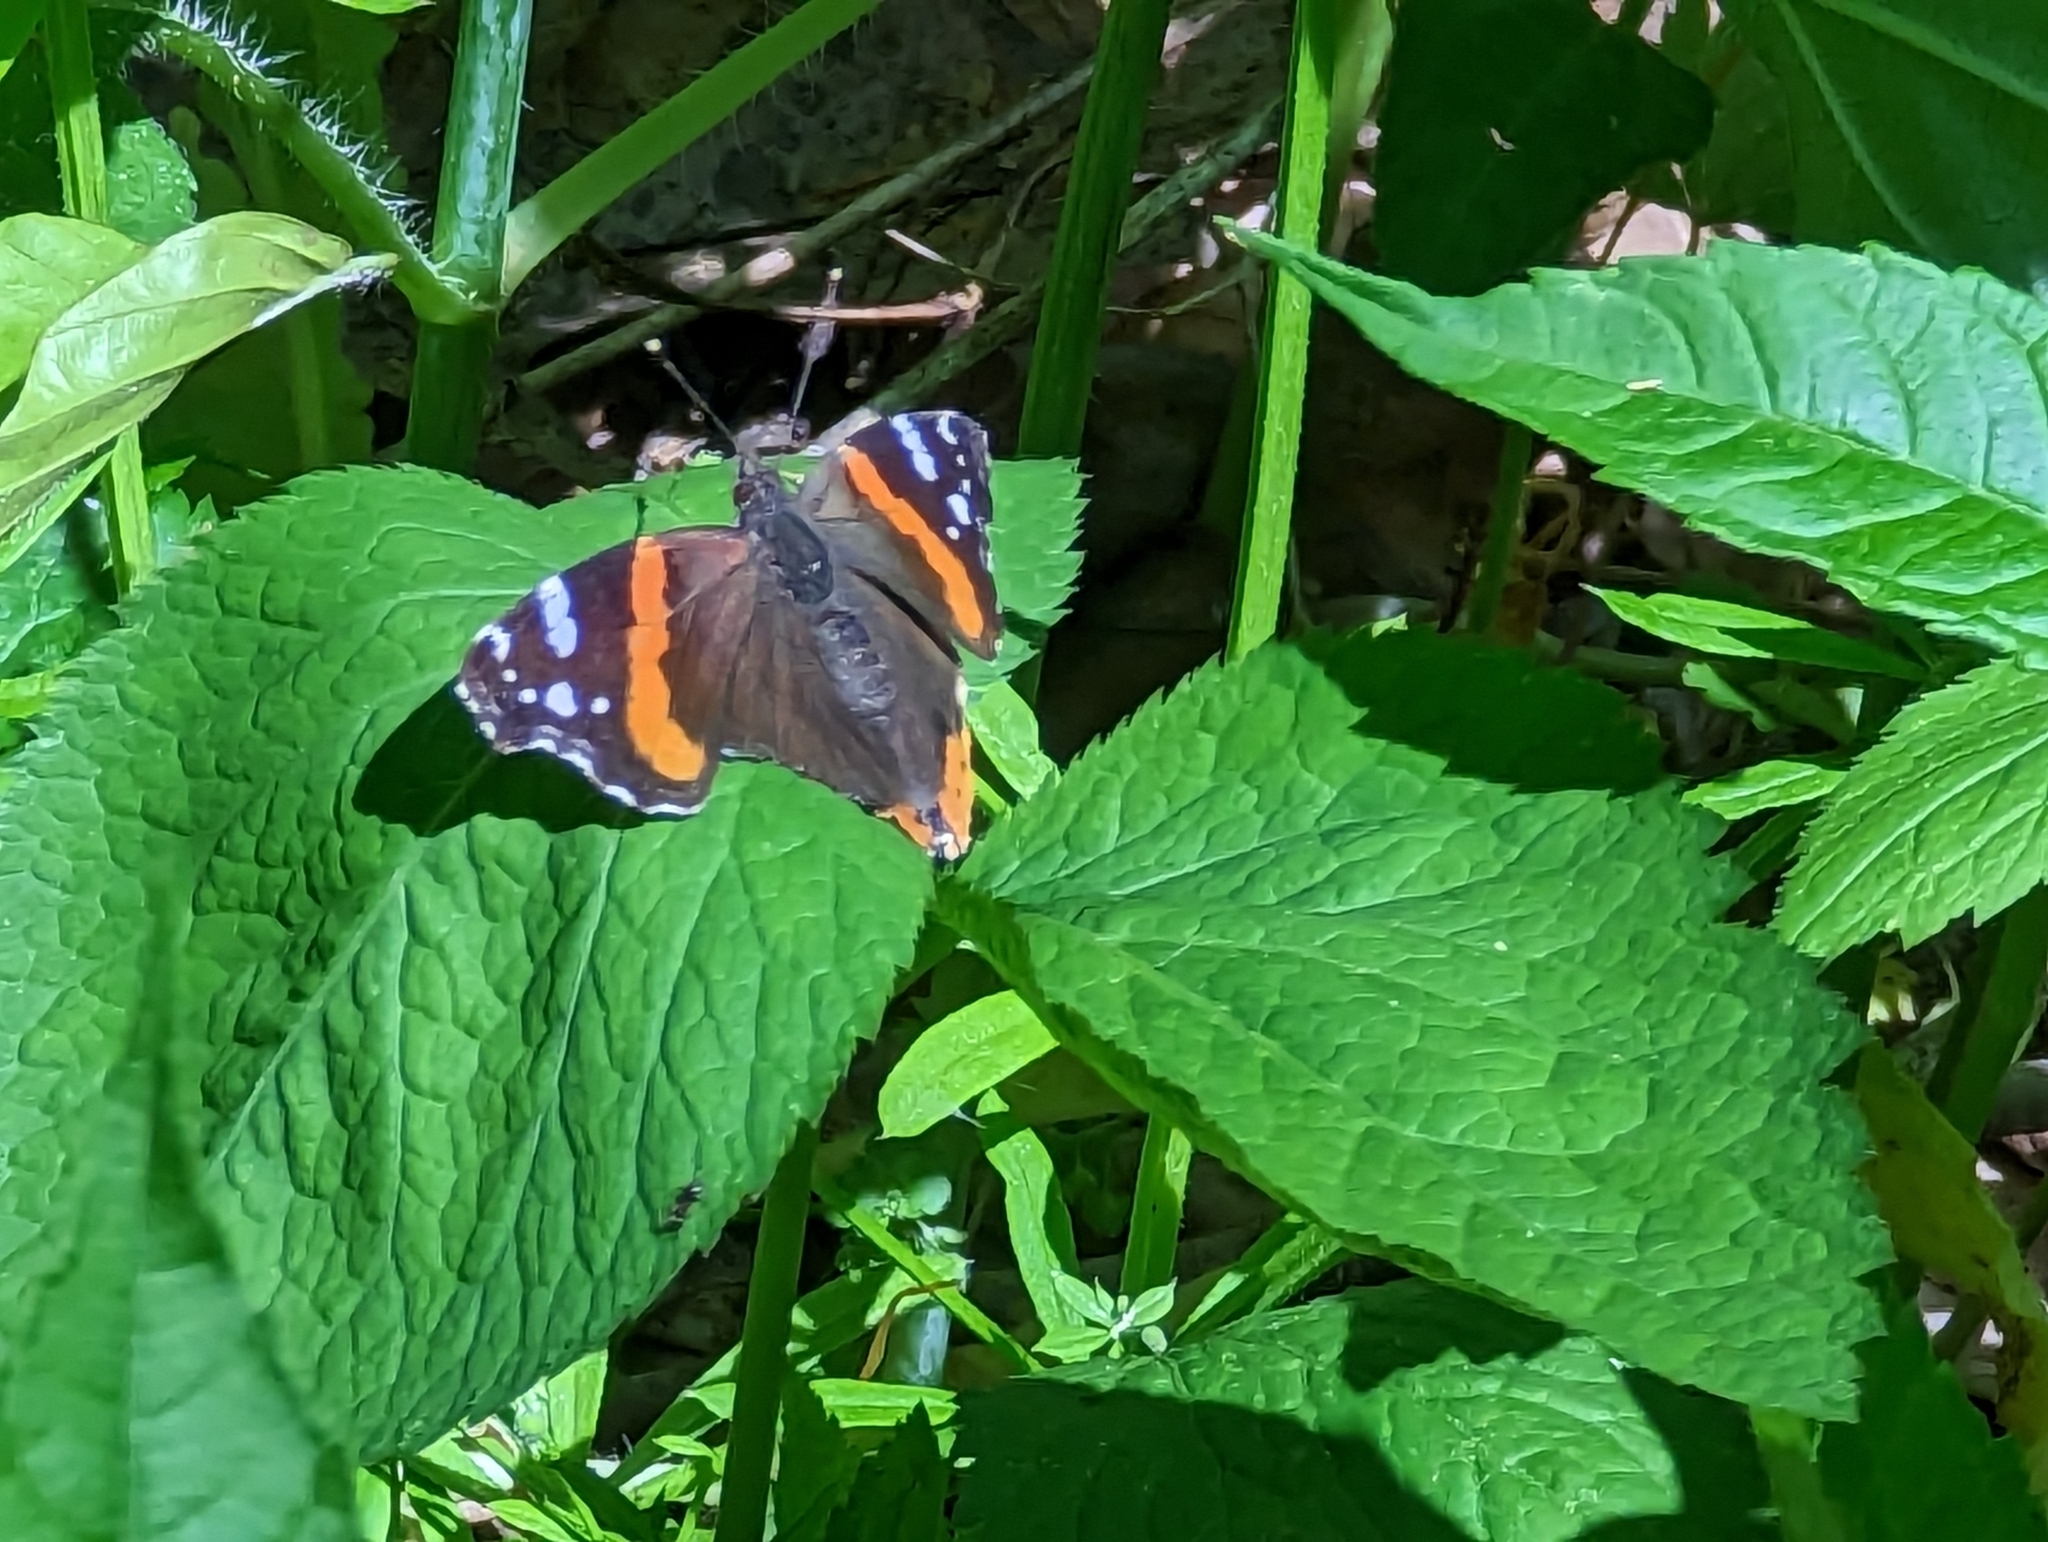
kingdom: Animalia
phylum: Arthropoda
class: Insecta
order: Lepidoptera
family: Nymphalidae
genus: Vanessa
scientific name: Vanessa atalanta
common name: Red admiral
